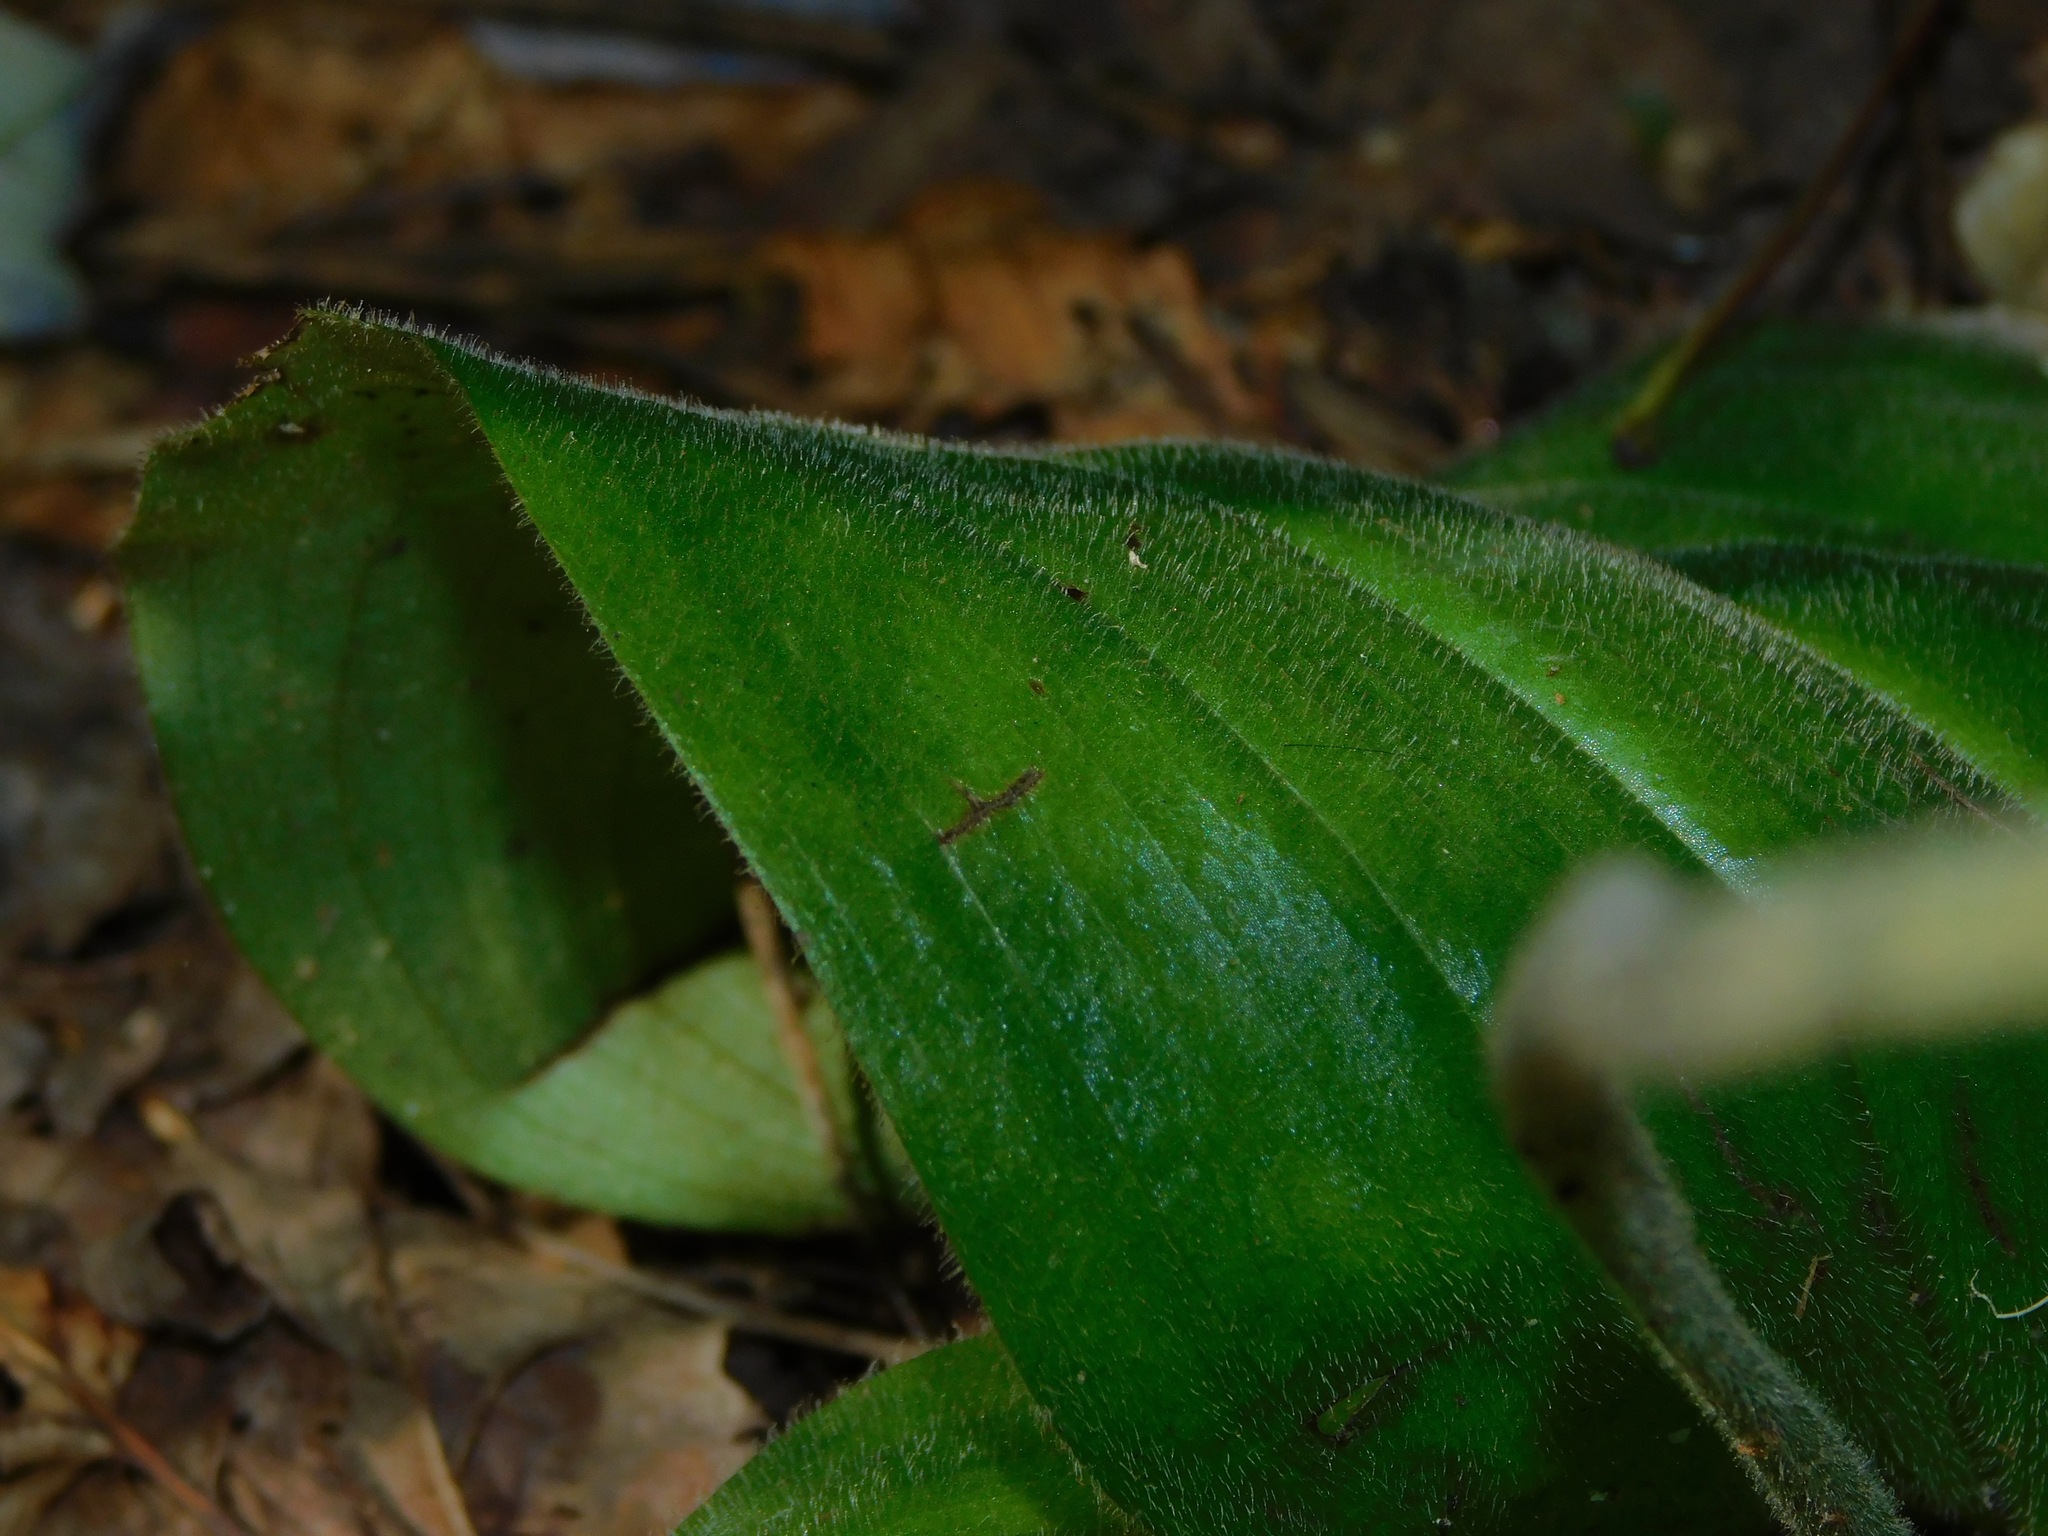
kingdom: Plantae
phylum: Tracheophyta
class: Liliopsida
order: Asparagales
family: Orchidaceae
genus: Cypripedium
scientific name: Cypripedium acaule
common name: Pink lady's-slipper
